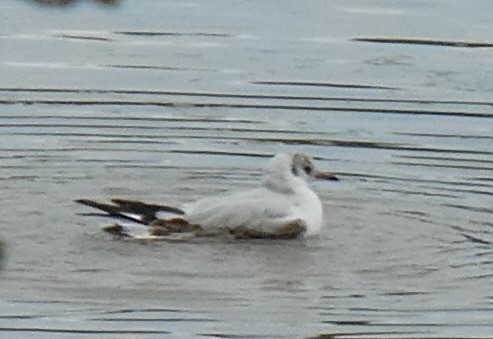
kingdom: Animalia
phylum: Chordata
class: Aves
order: Charadriiformes
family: Laridae
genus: Chroicocephalus
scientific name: Chroicocephalus ridibundus
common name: Black-headed gull
